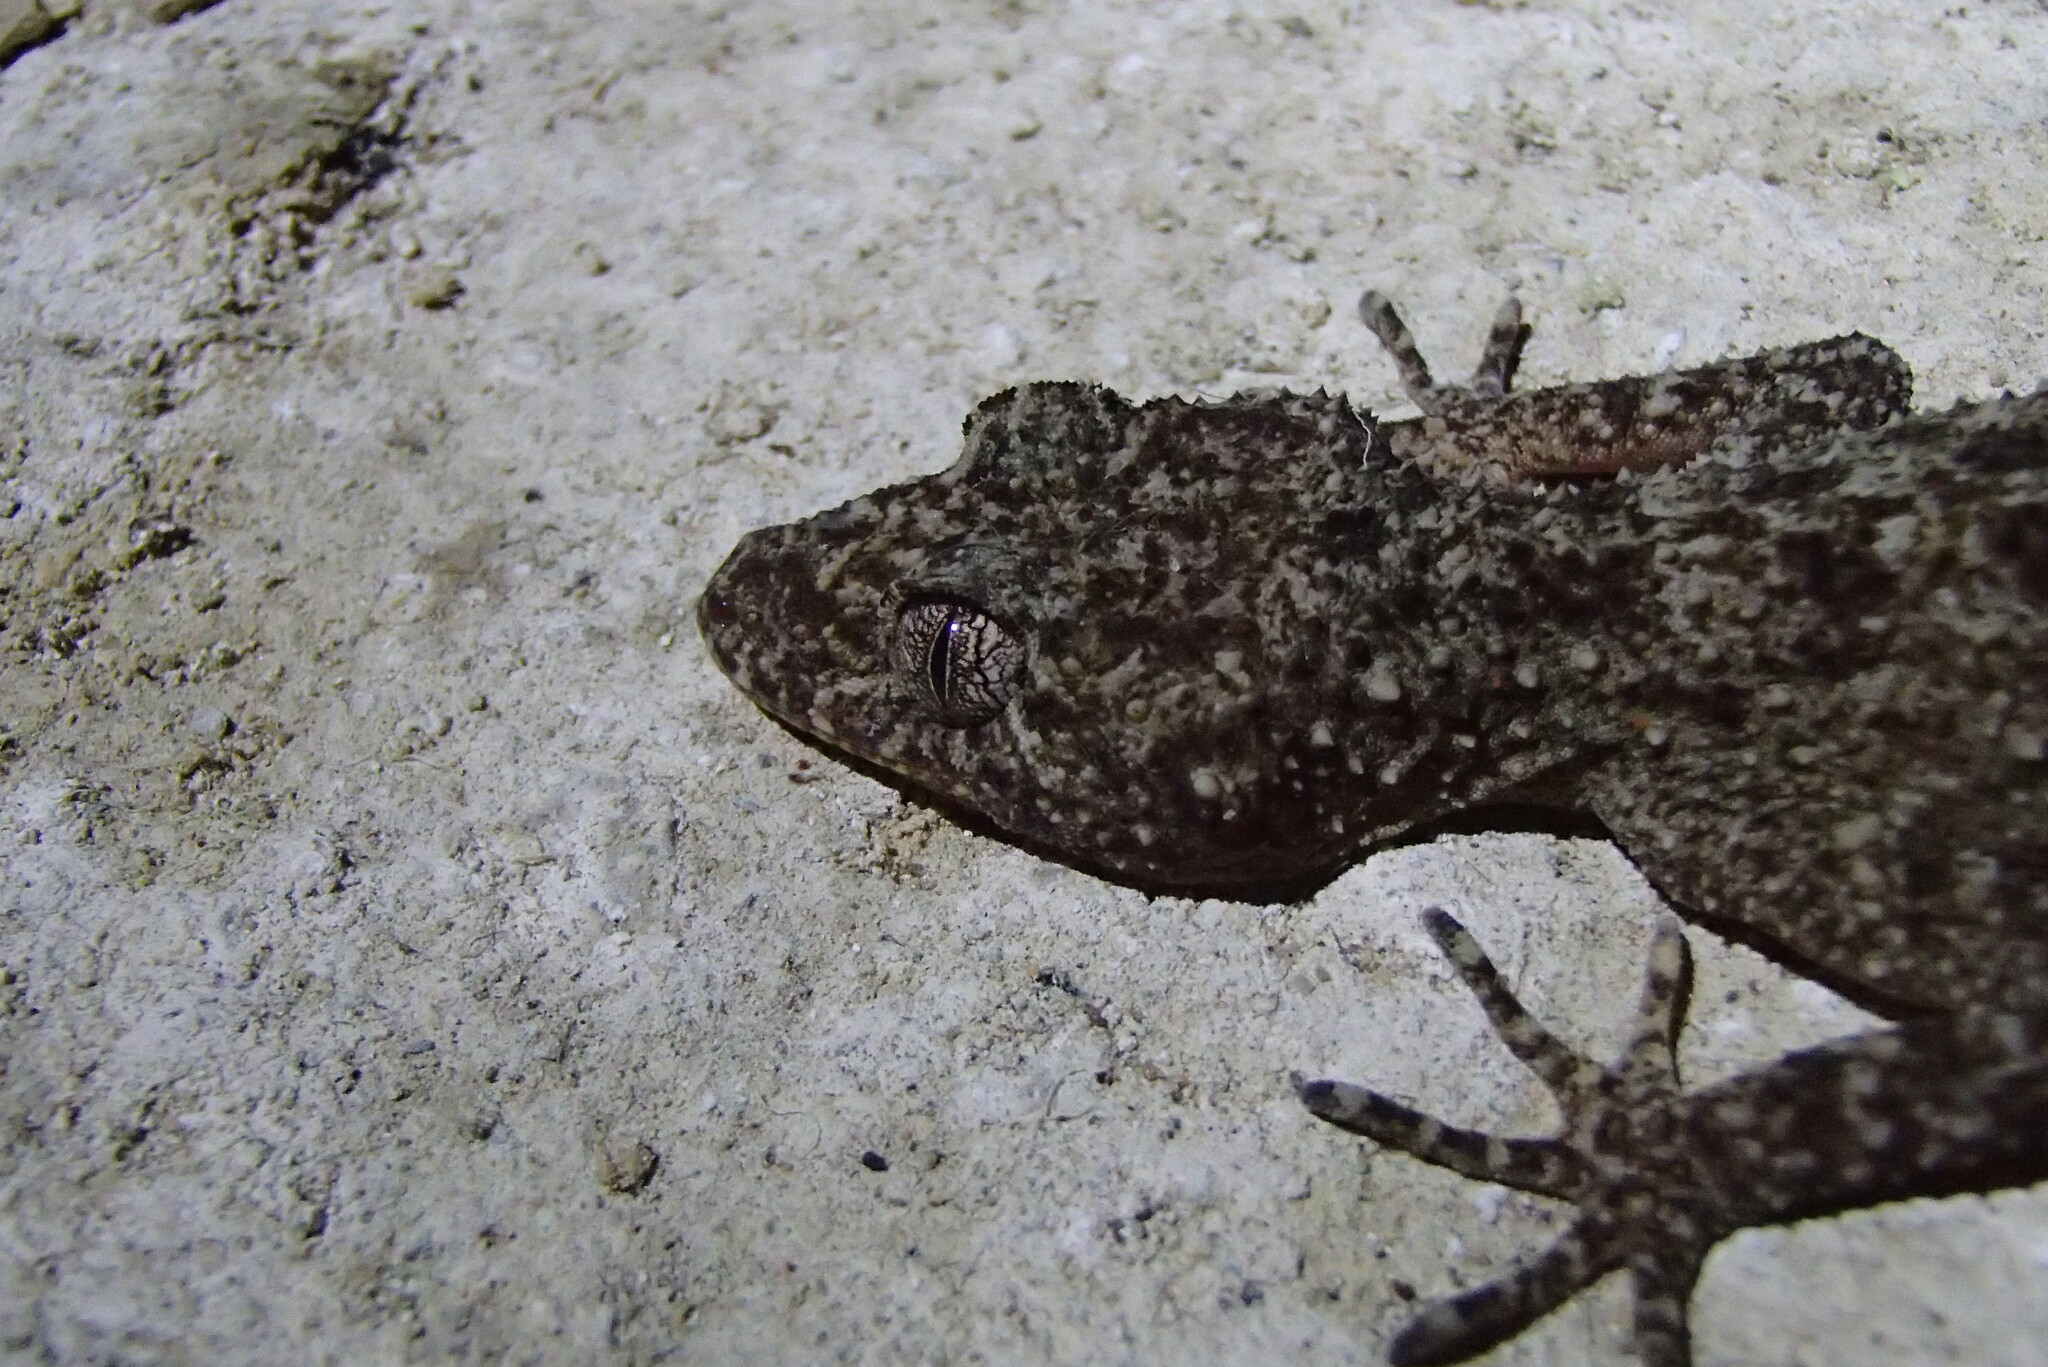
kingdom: Animalia
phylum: Chordata
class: Squamata
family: Carphodactylidae
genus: Phyllurus
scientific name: Phyllurus platurus
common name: Broad-tailed gecko
